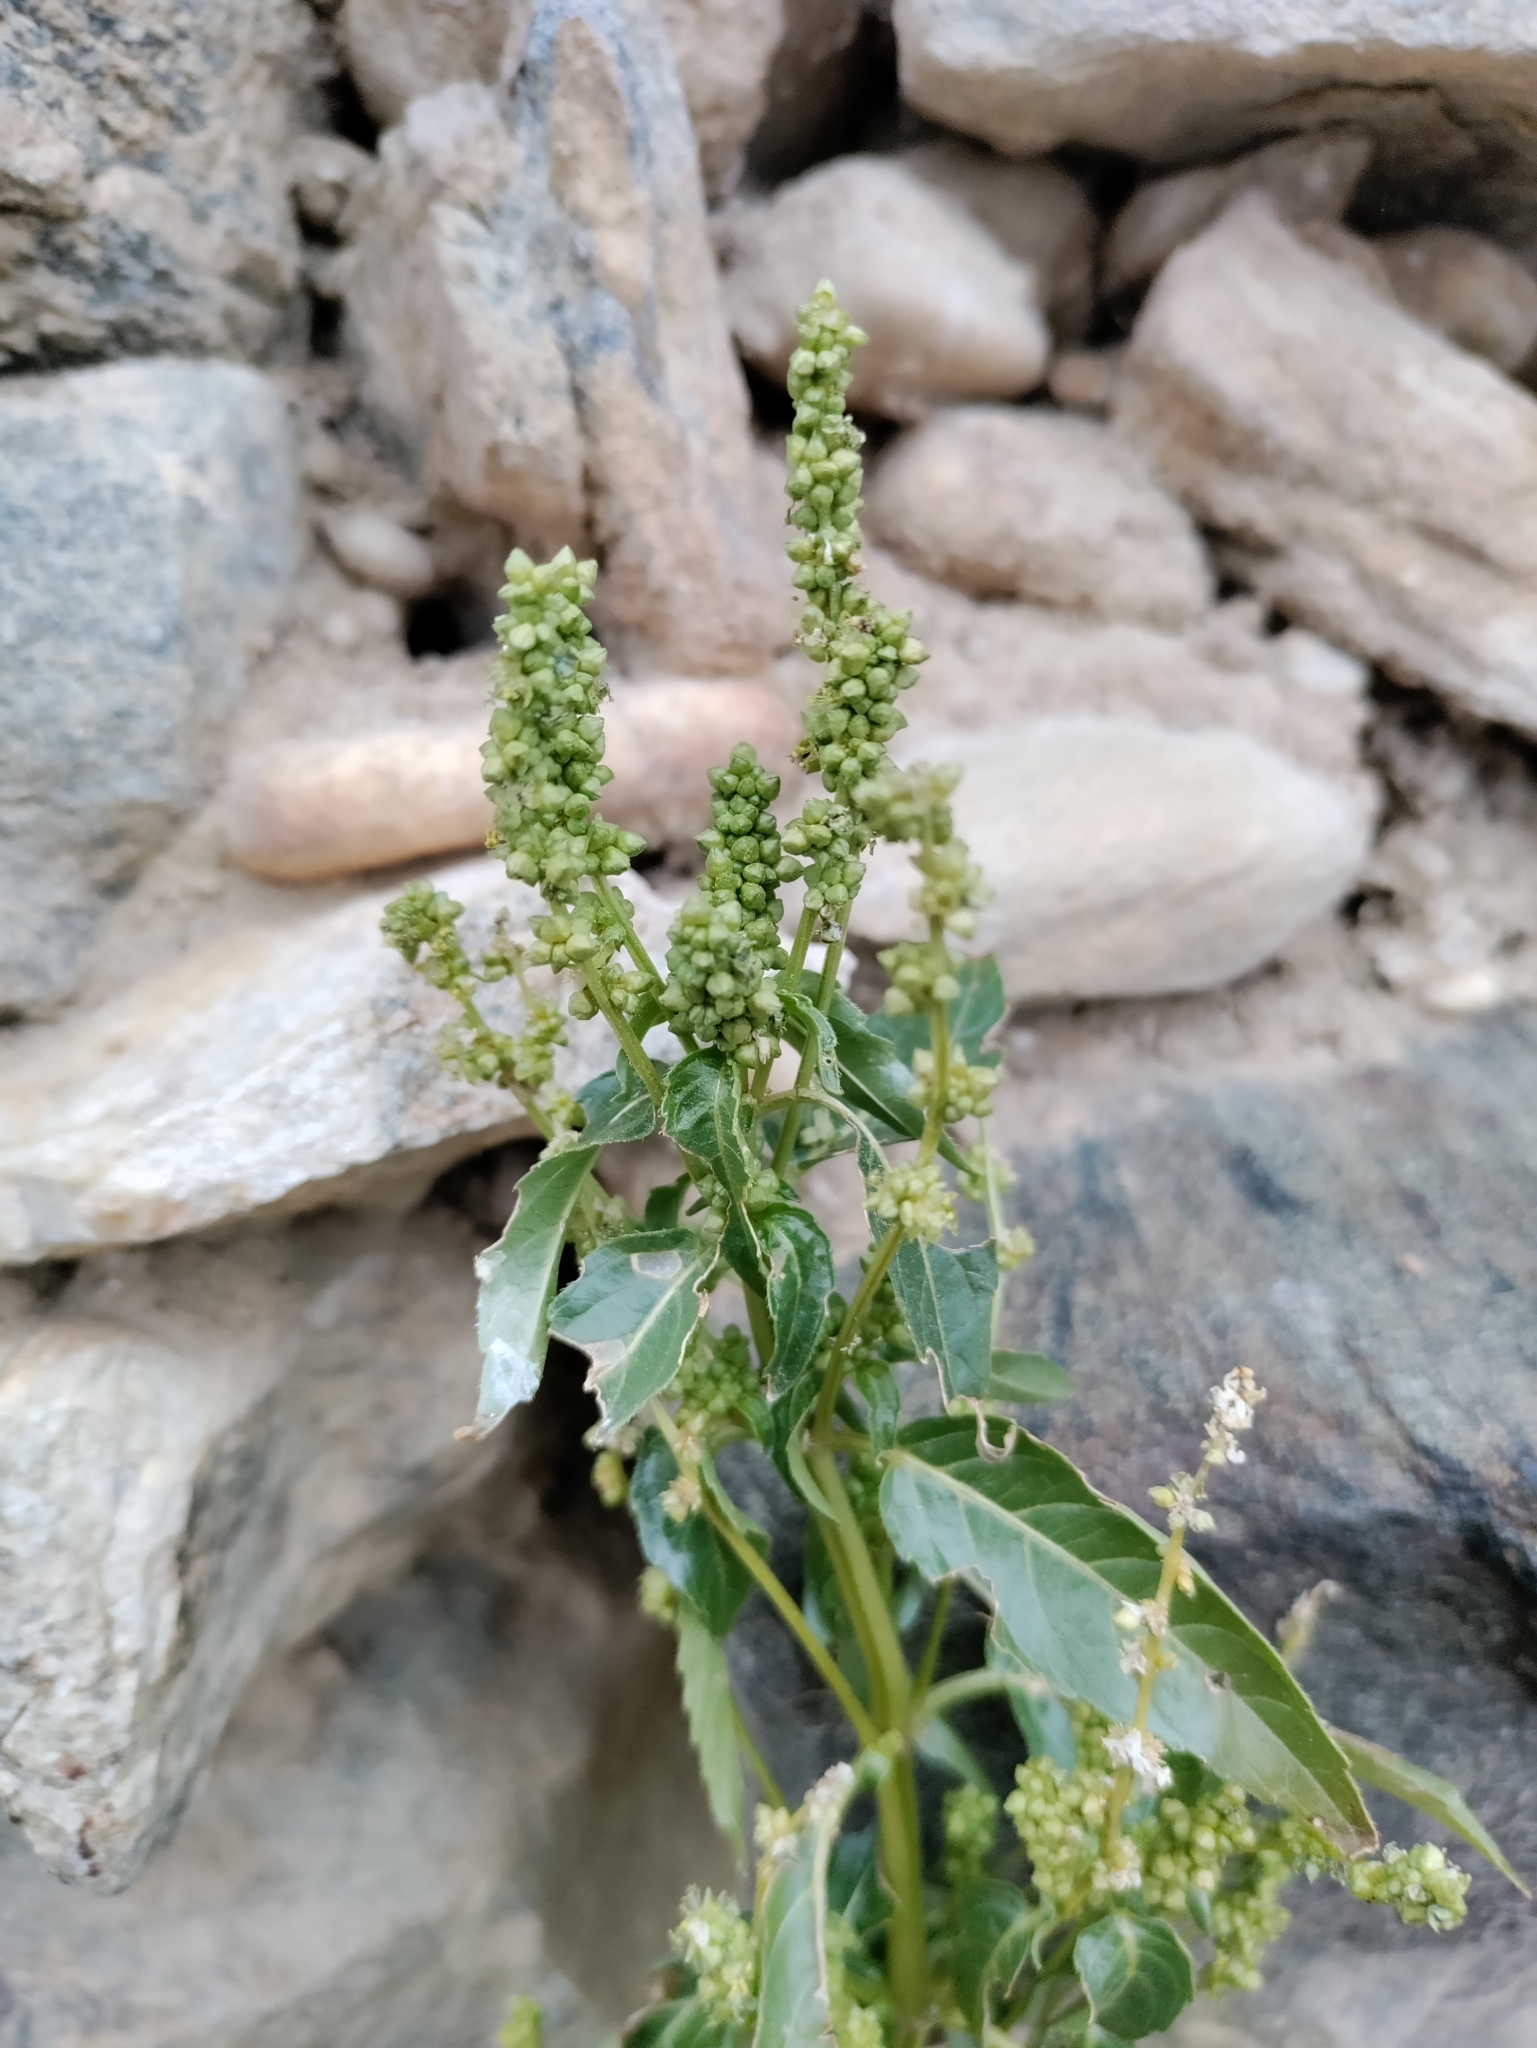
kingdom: Plantae
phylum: Tracheophyta
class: Magnoliopsida
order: Malpighiales
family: Euphorbiaceae
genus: Mercurialis
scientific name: Mercurialis annua
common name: Annual mercury
